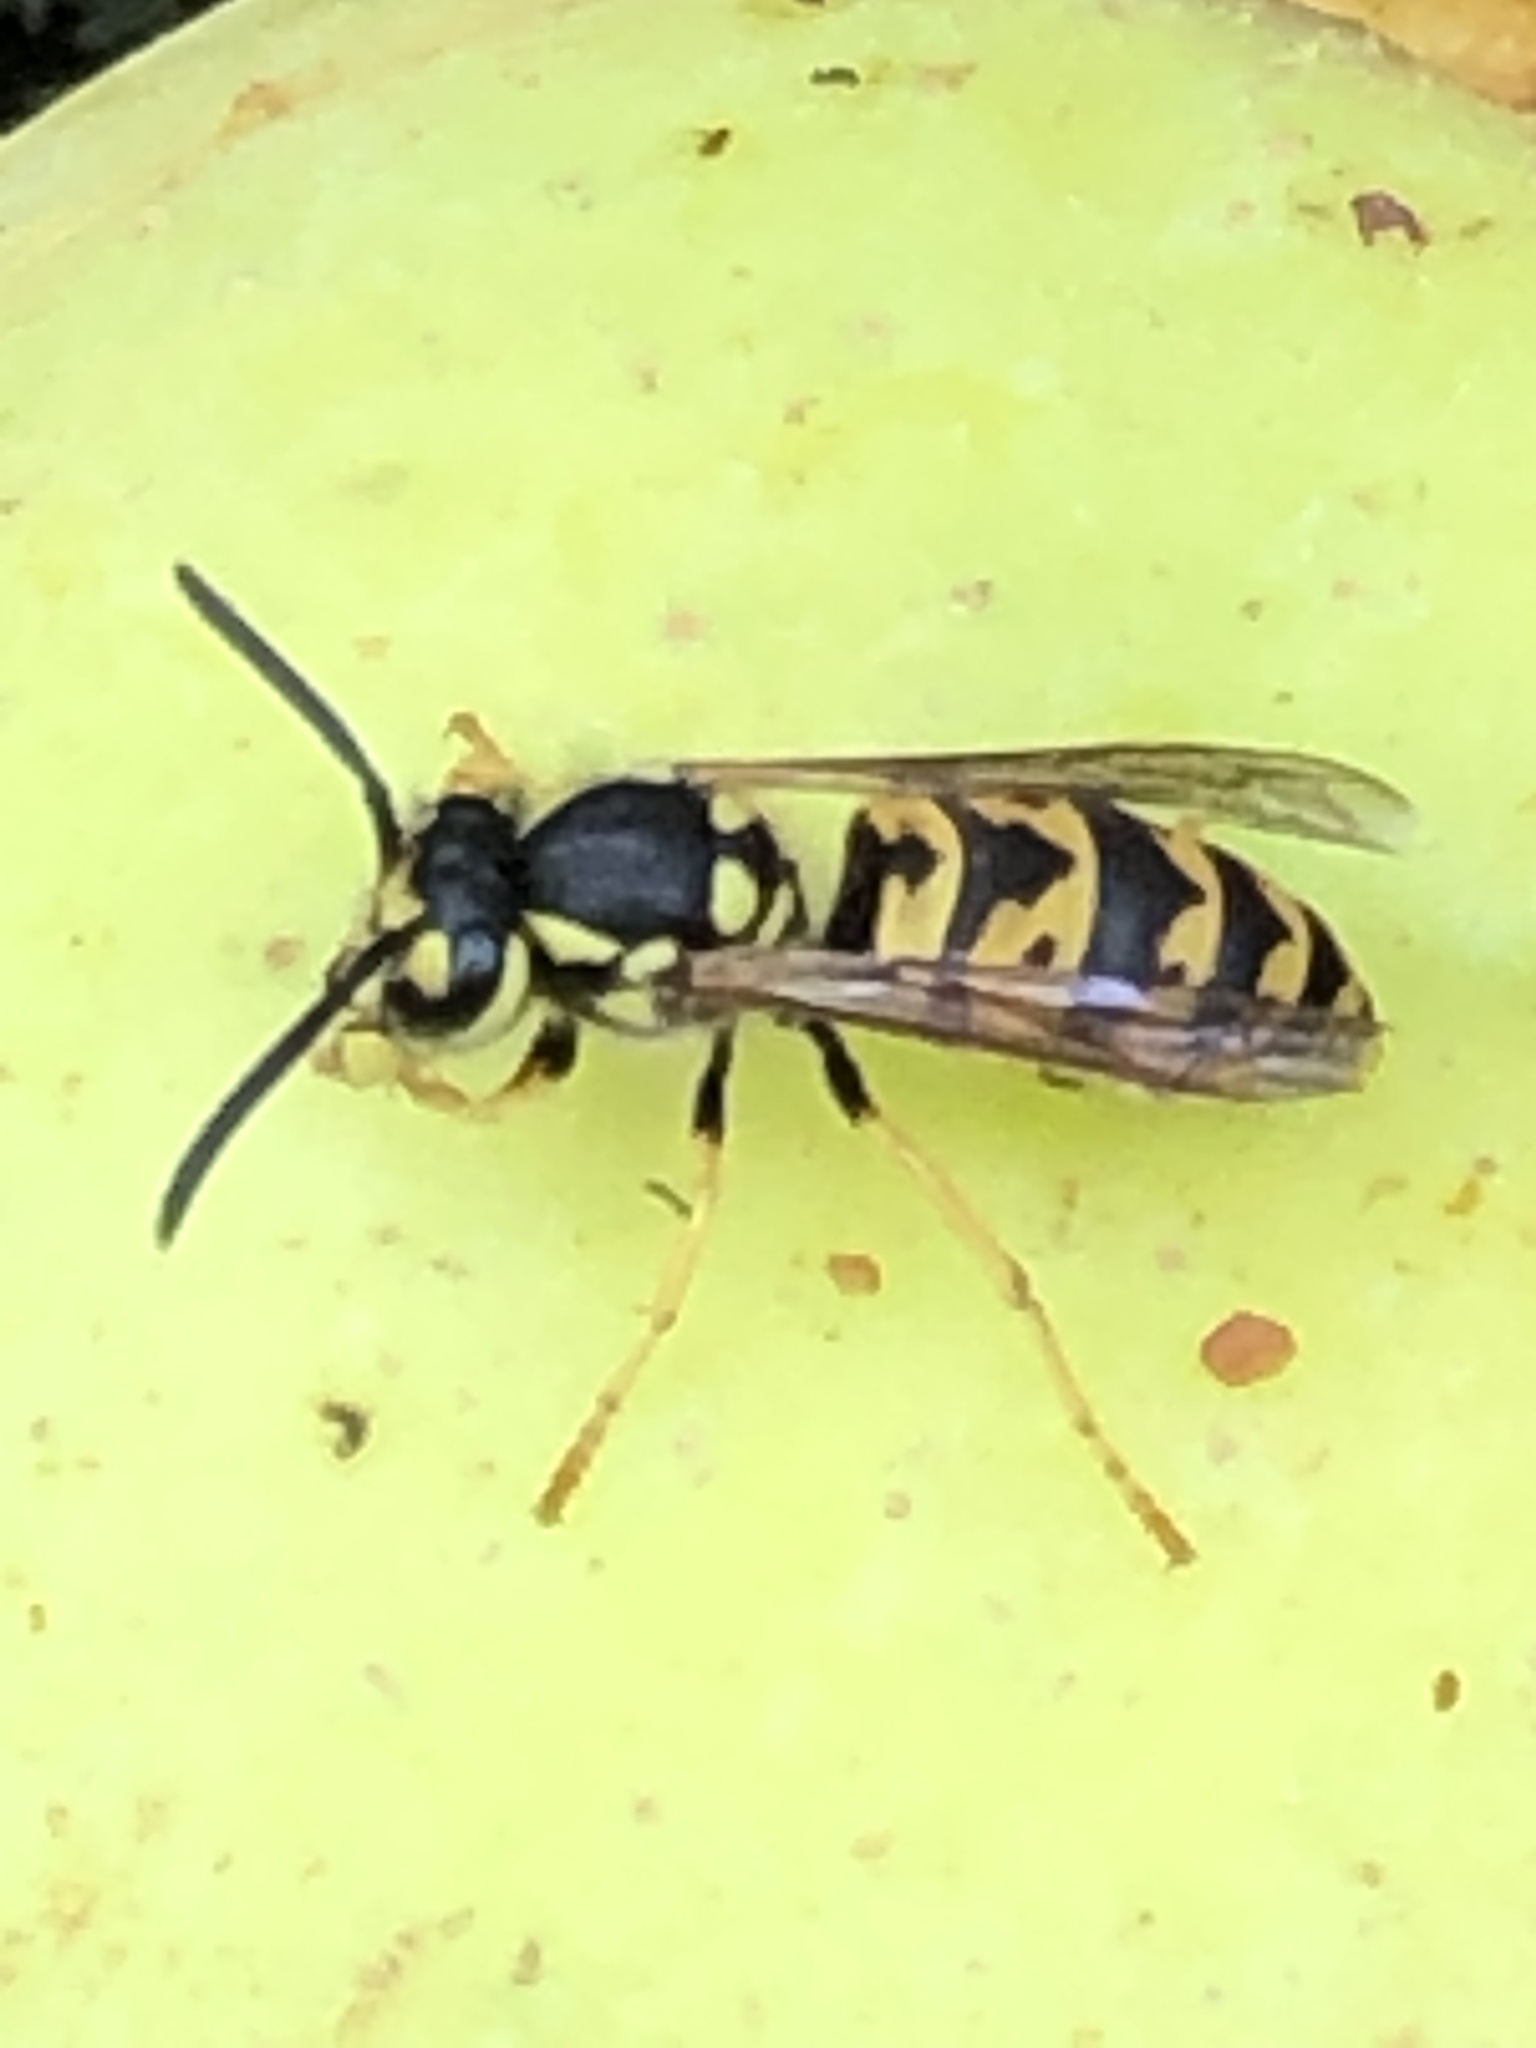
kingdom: Animalia
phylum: Arthropoda
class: Insecta
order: Hymenoptera
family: Vespidae
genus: Vespula
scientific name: Vespula germanica
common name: German wasp
